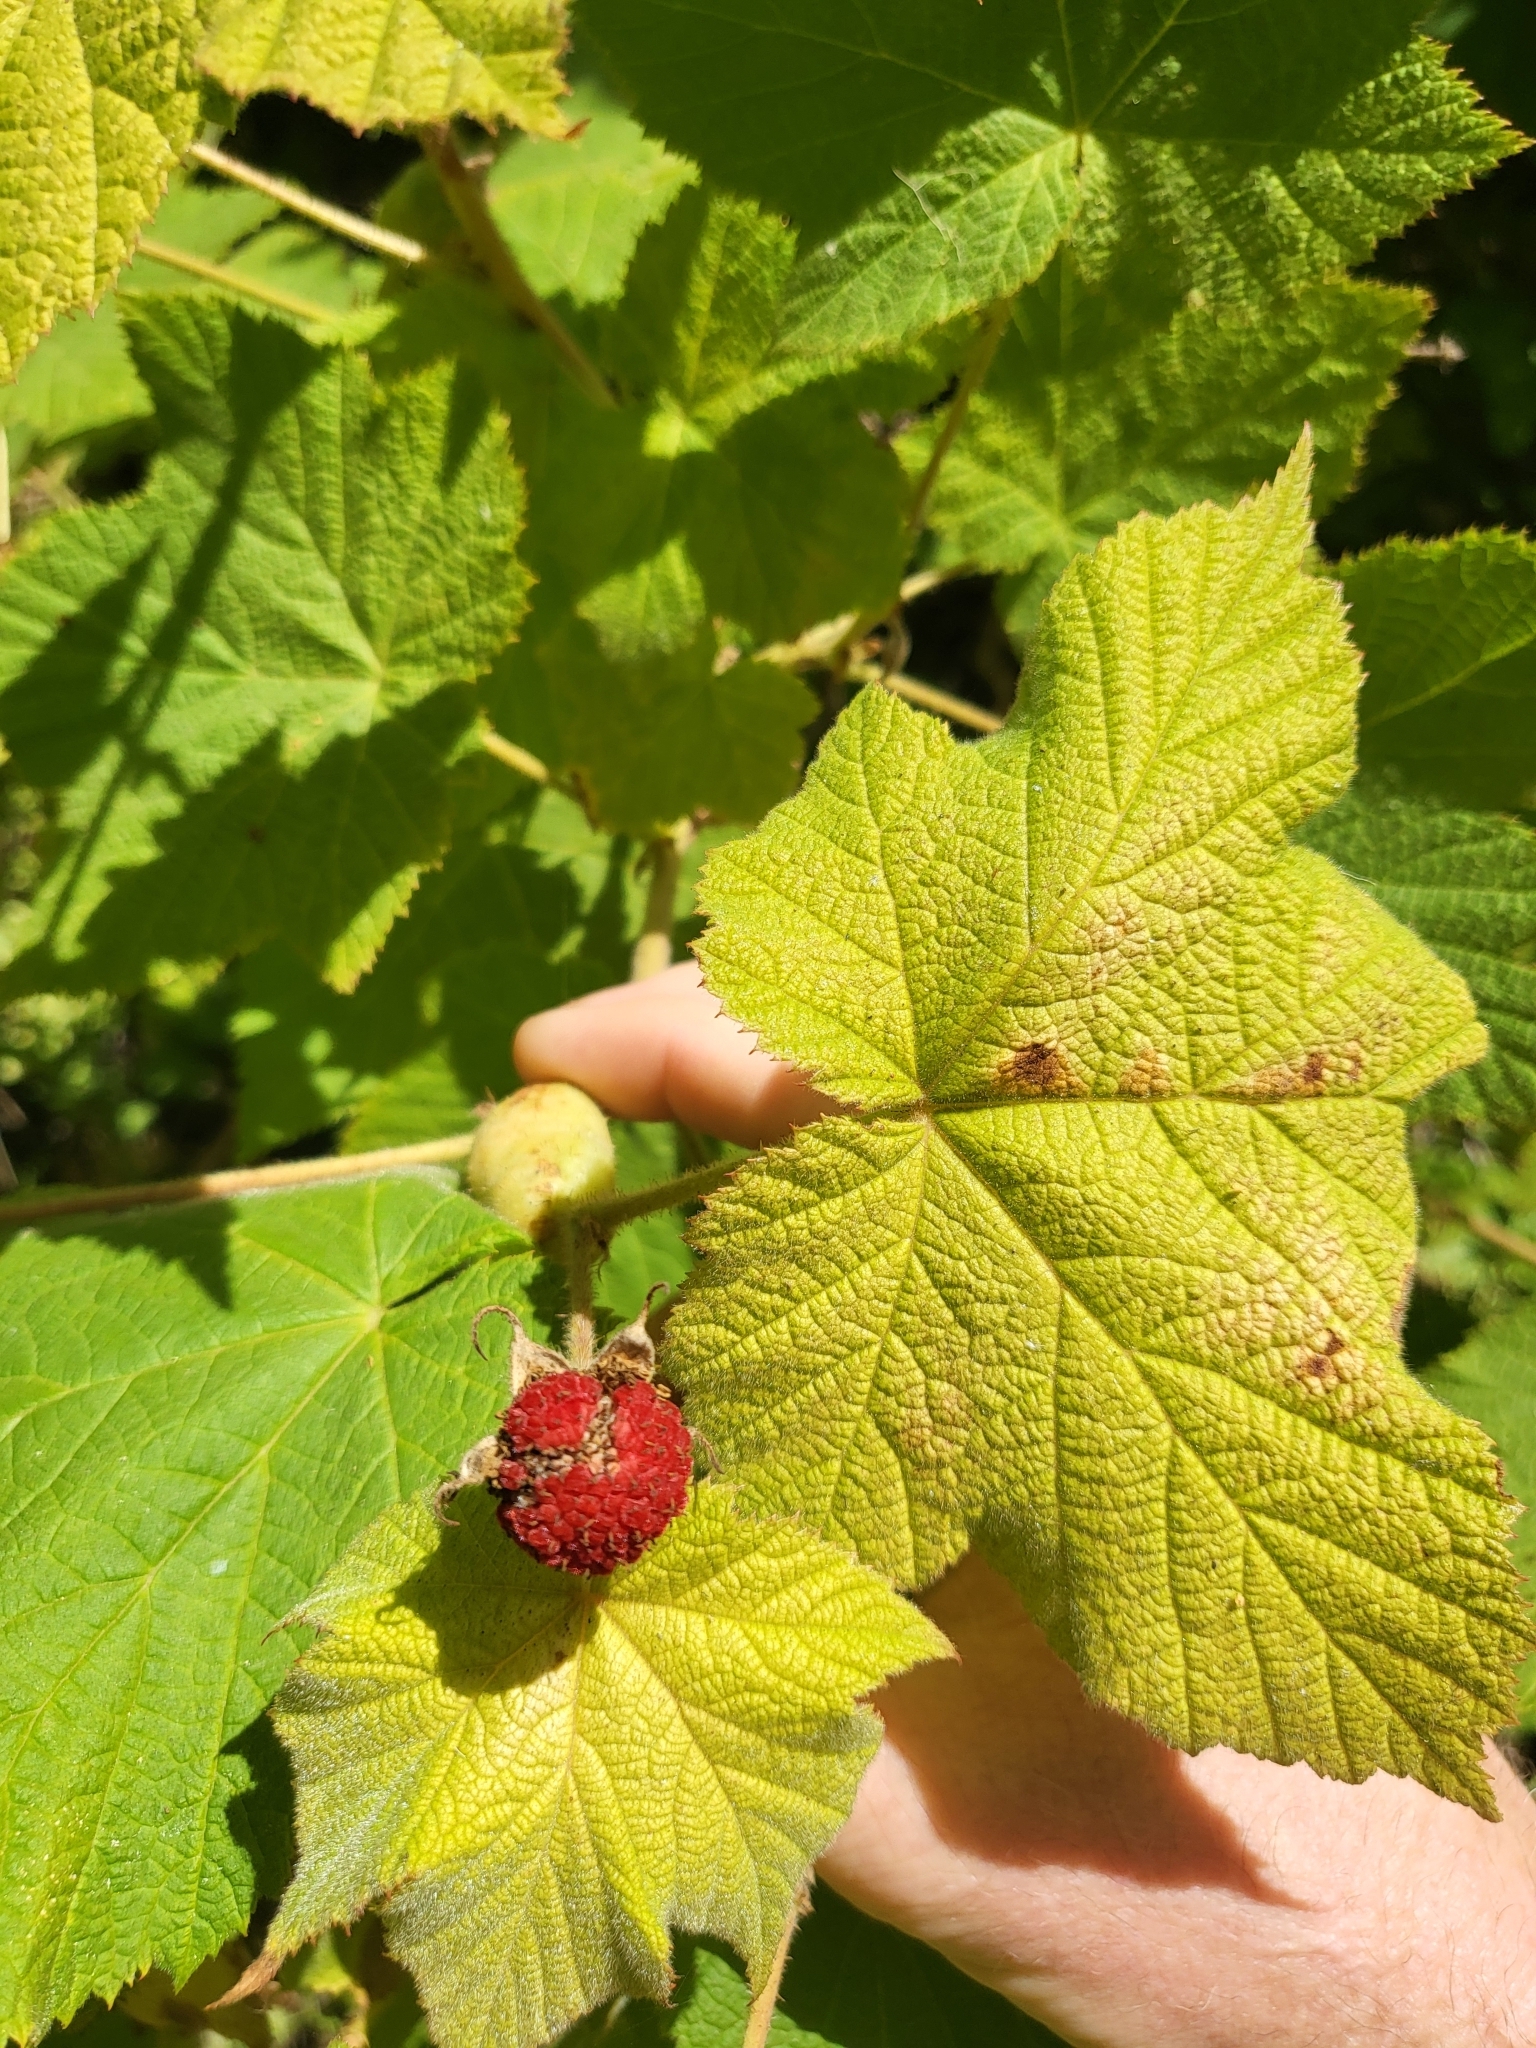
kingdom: Plantae
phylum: Tracheophyta
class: Magnoliopsida
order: Rosales
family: Rosaceae
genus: Rubus
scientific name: Rubus parviflorus
